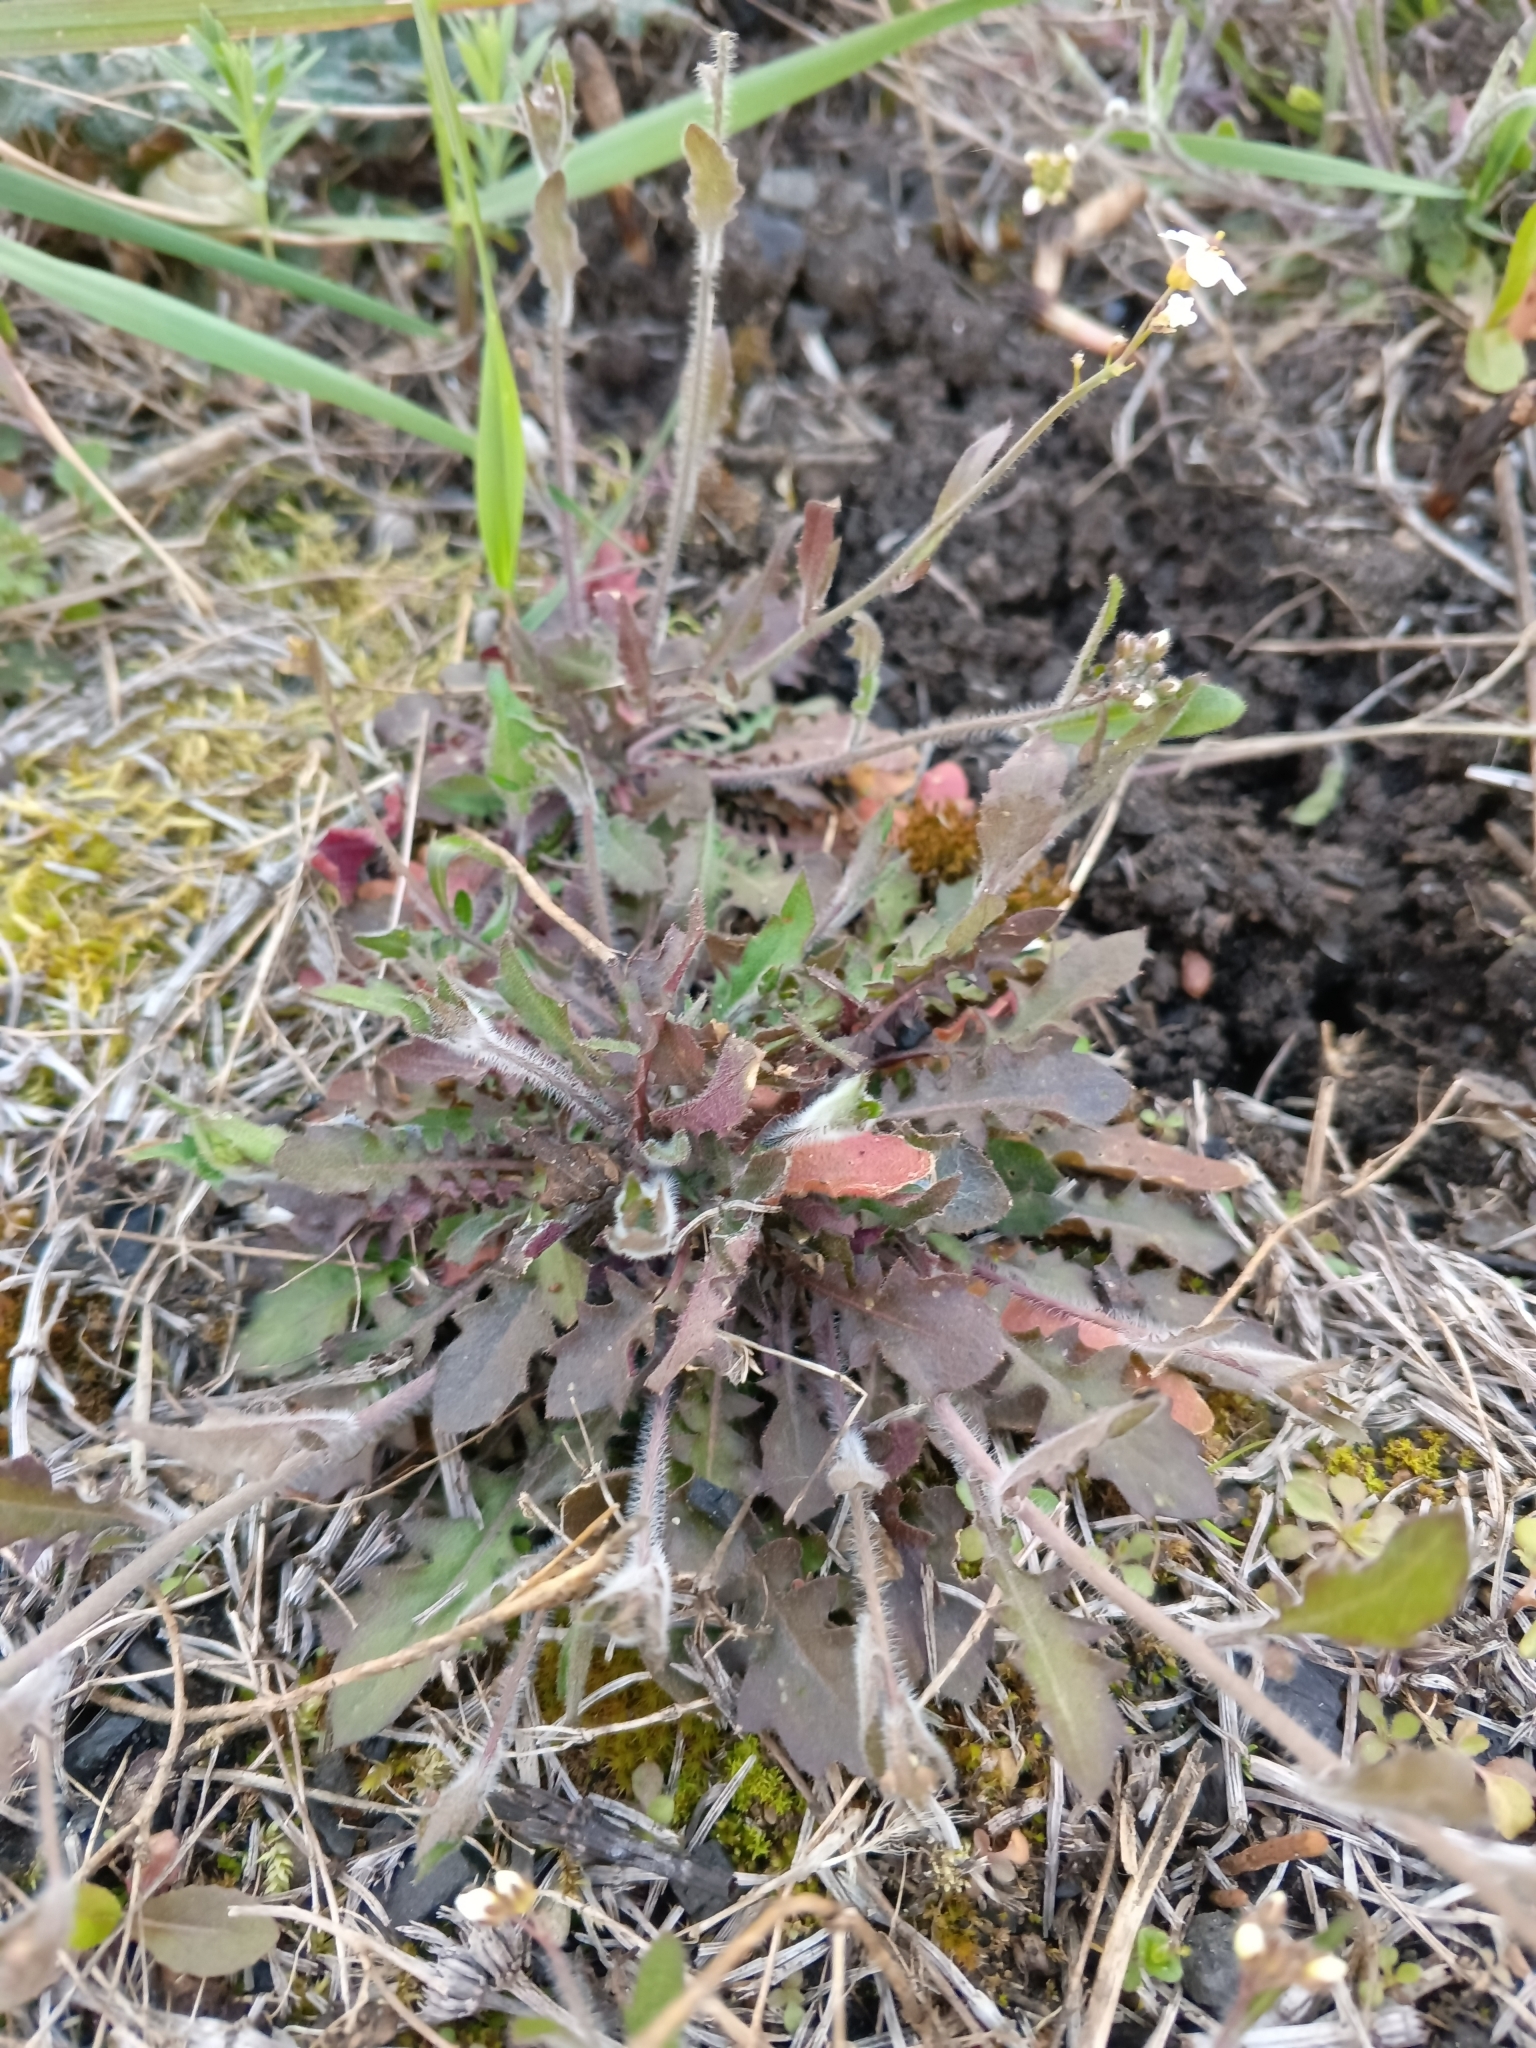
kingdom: Plantae
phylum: Tracheophyta
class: Magnoliopsida
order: Brassicales
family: Brassicaceae
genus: Arabidopsis
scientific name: Arabidopsis arenosa
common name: Sand rock-cress
